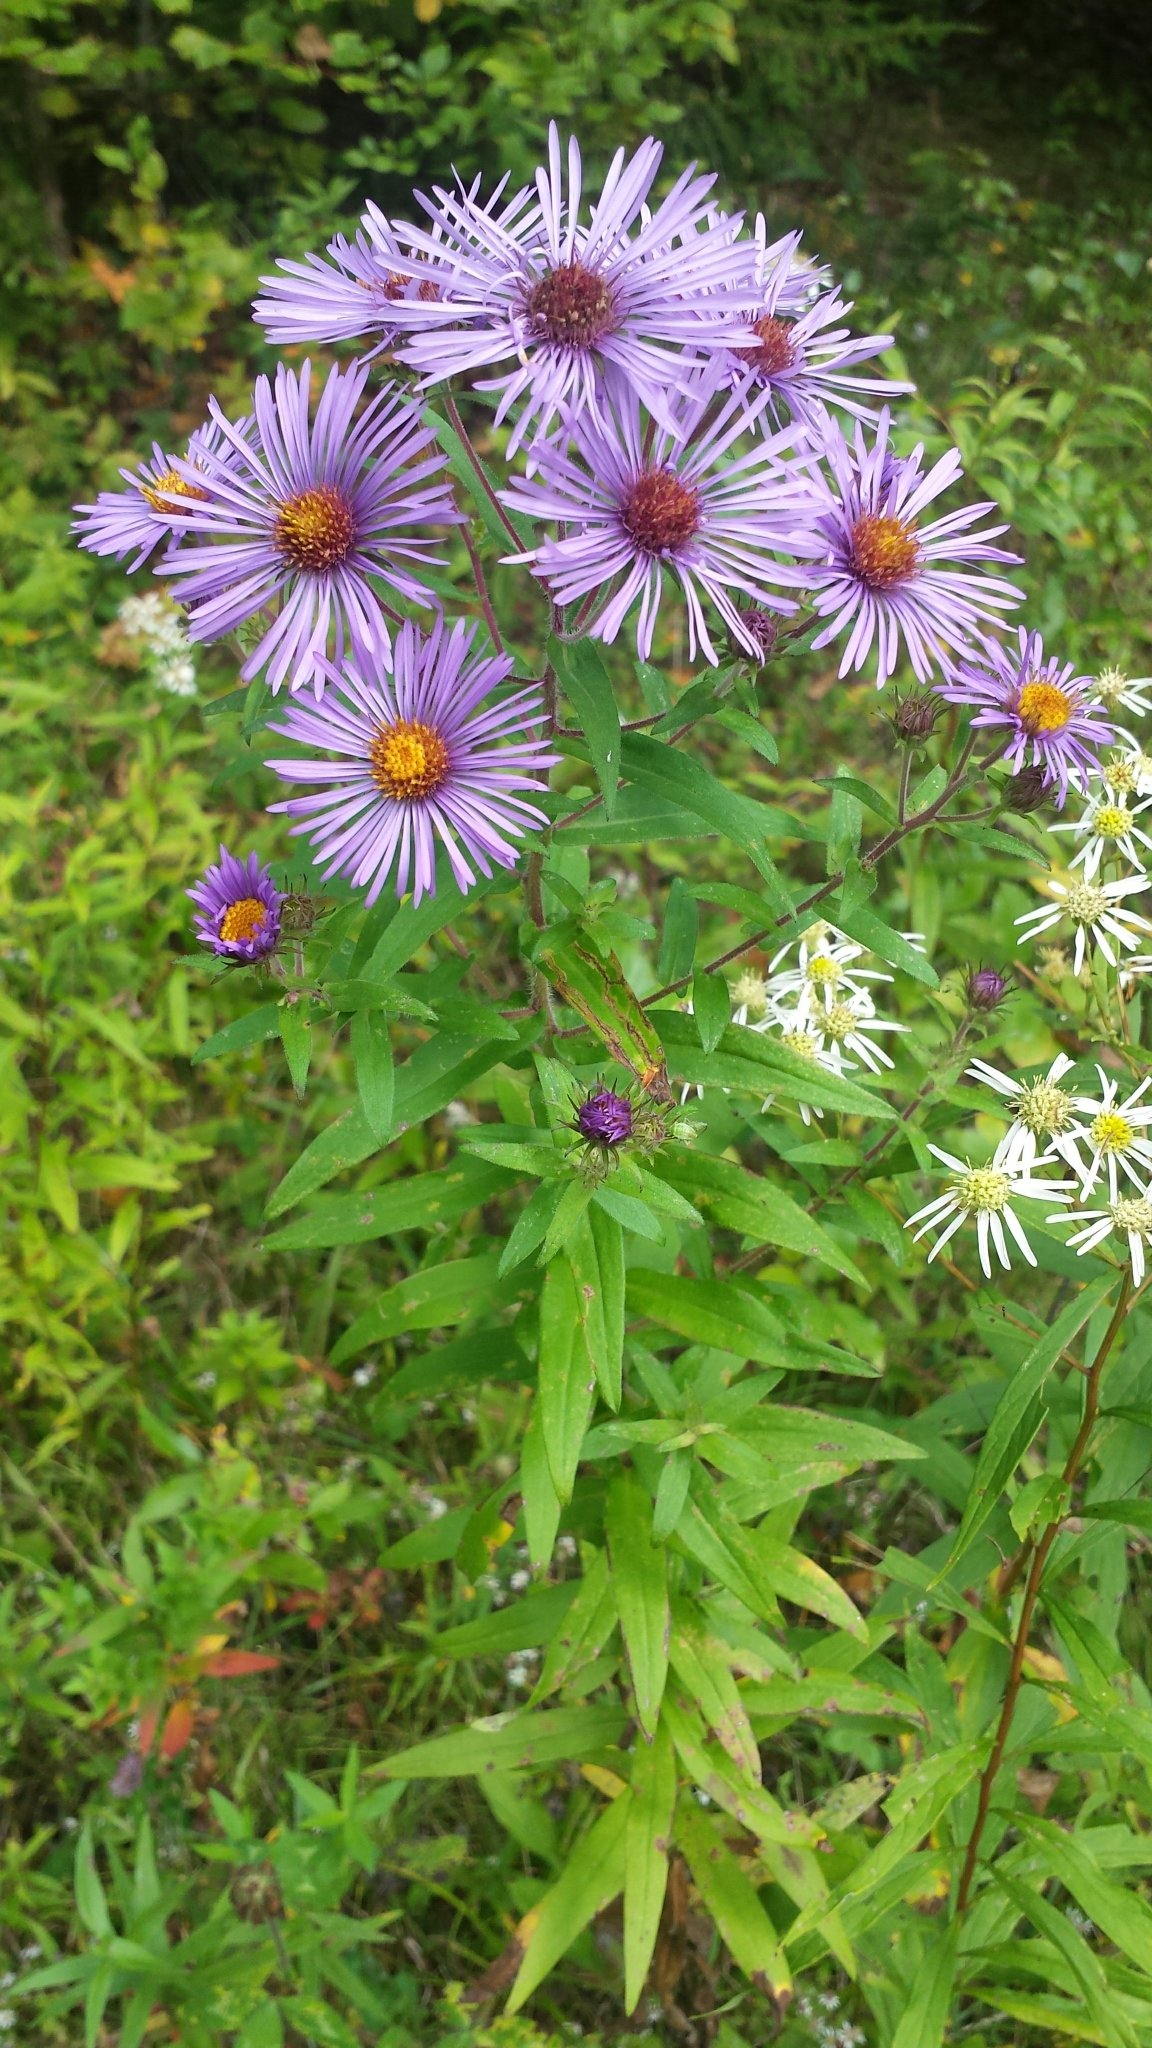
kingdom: Plantae
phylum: Tracheophyta
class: Magnoliopsida
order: Asterales
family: Asteraceae
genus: Symphyotrichum
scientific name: Symphyotrichum novae-angliae
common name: Michaelmas daisy
